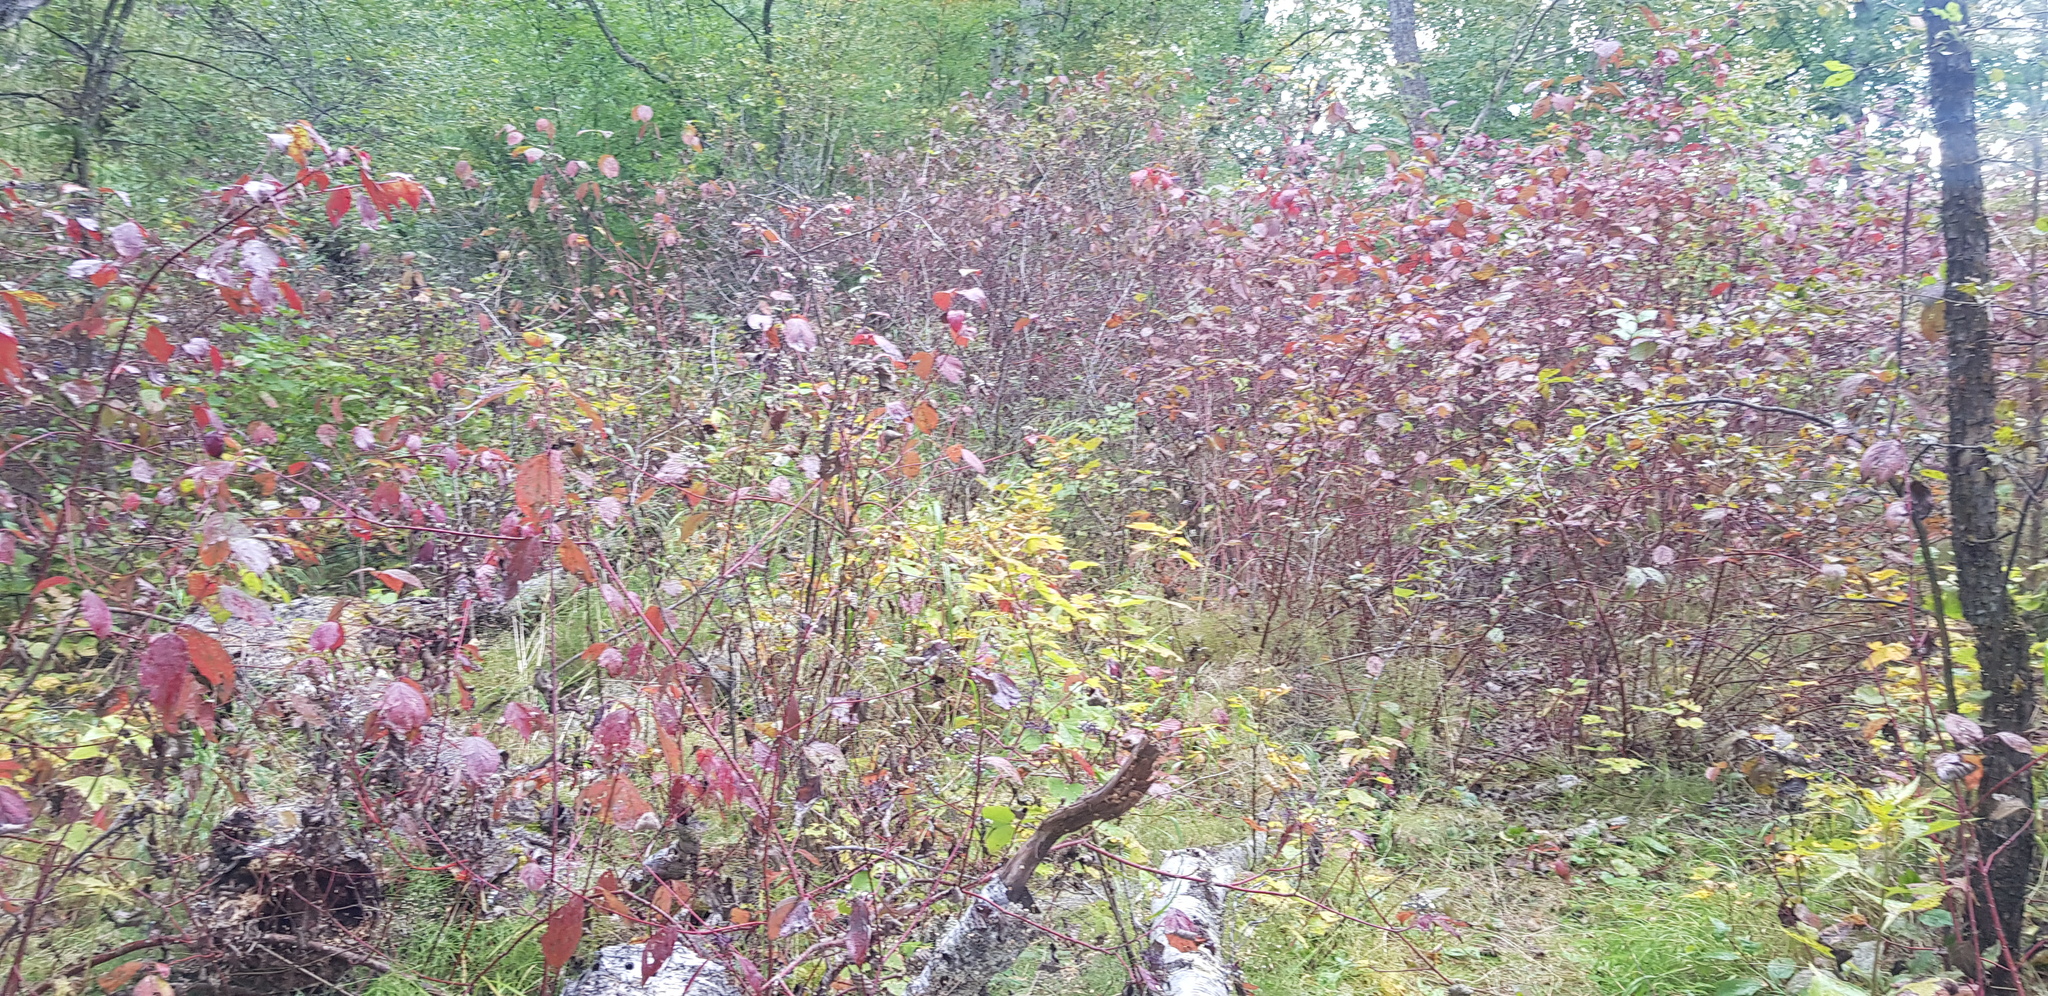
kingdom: Plantae
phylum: Tracheophyta
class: Magnoliopsida
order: Rosales
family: Rosaceae
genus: Rosa
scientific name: Rosa acicularis
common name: Prickly rose
